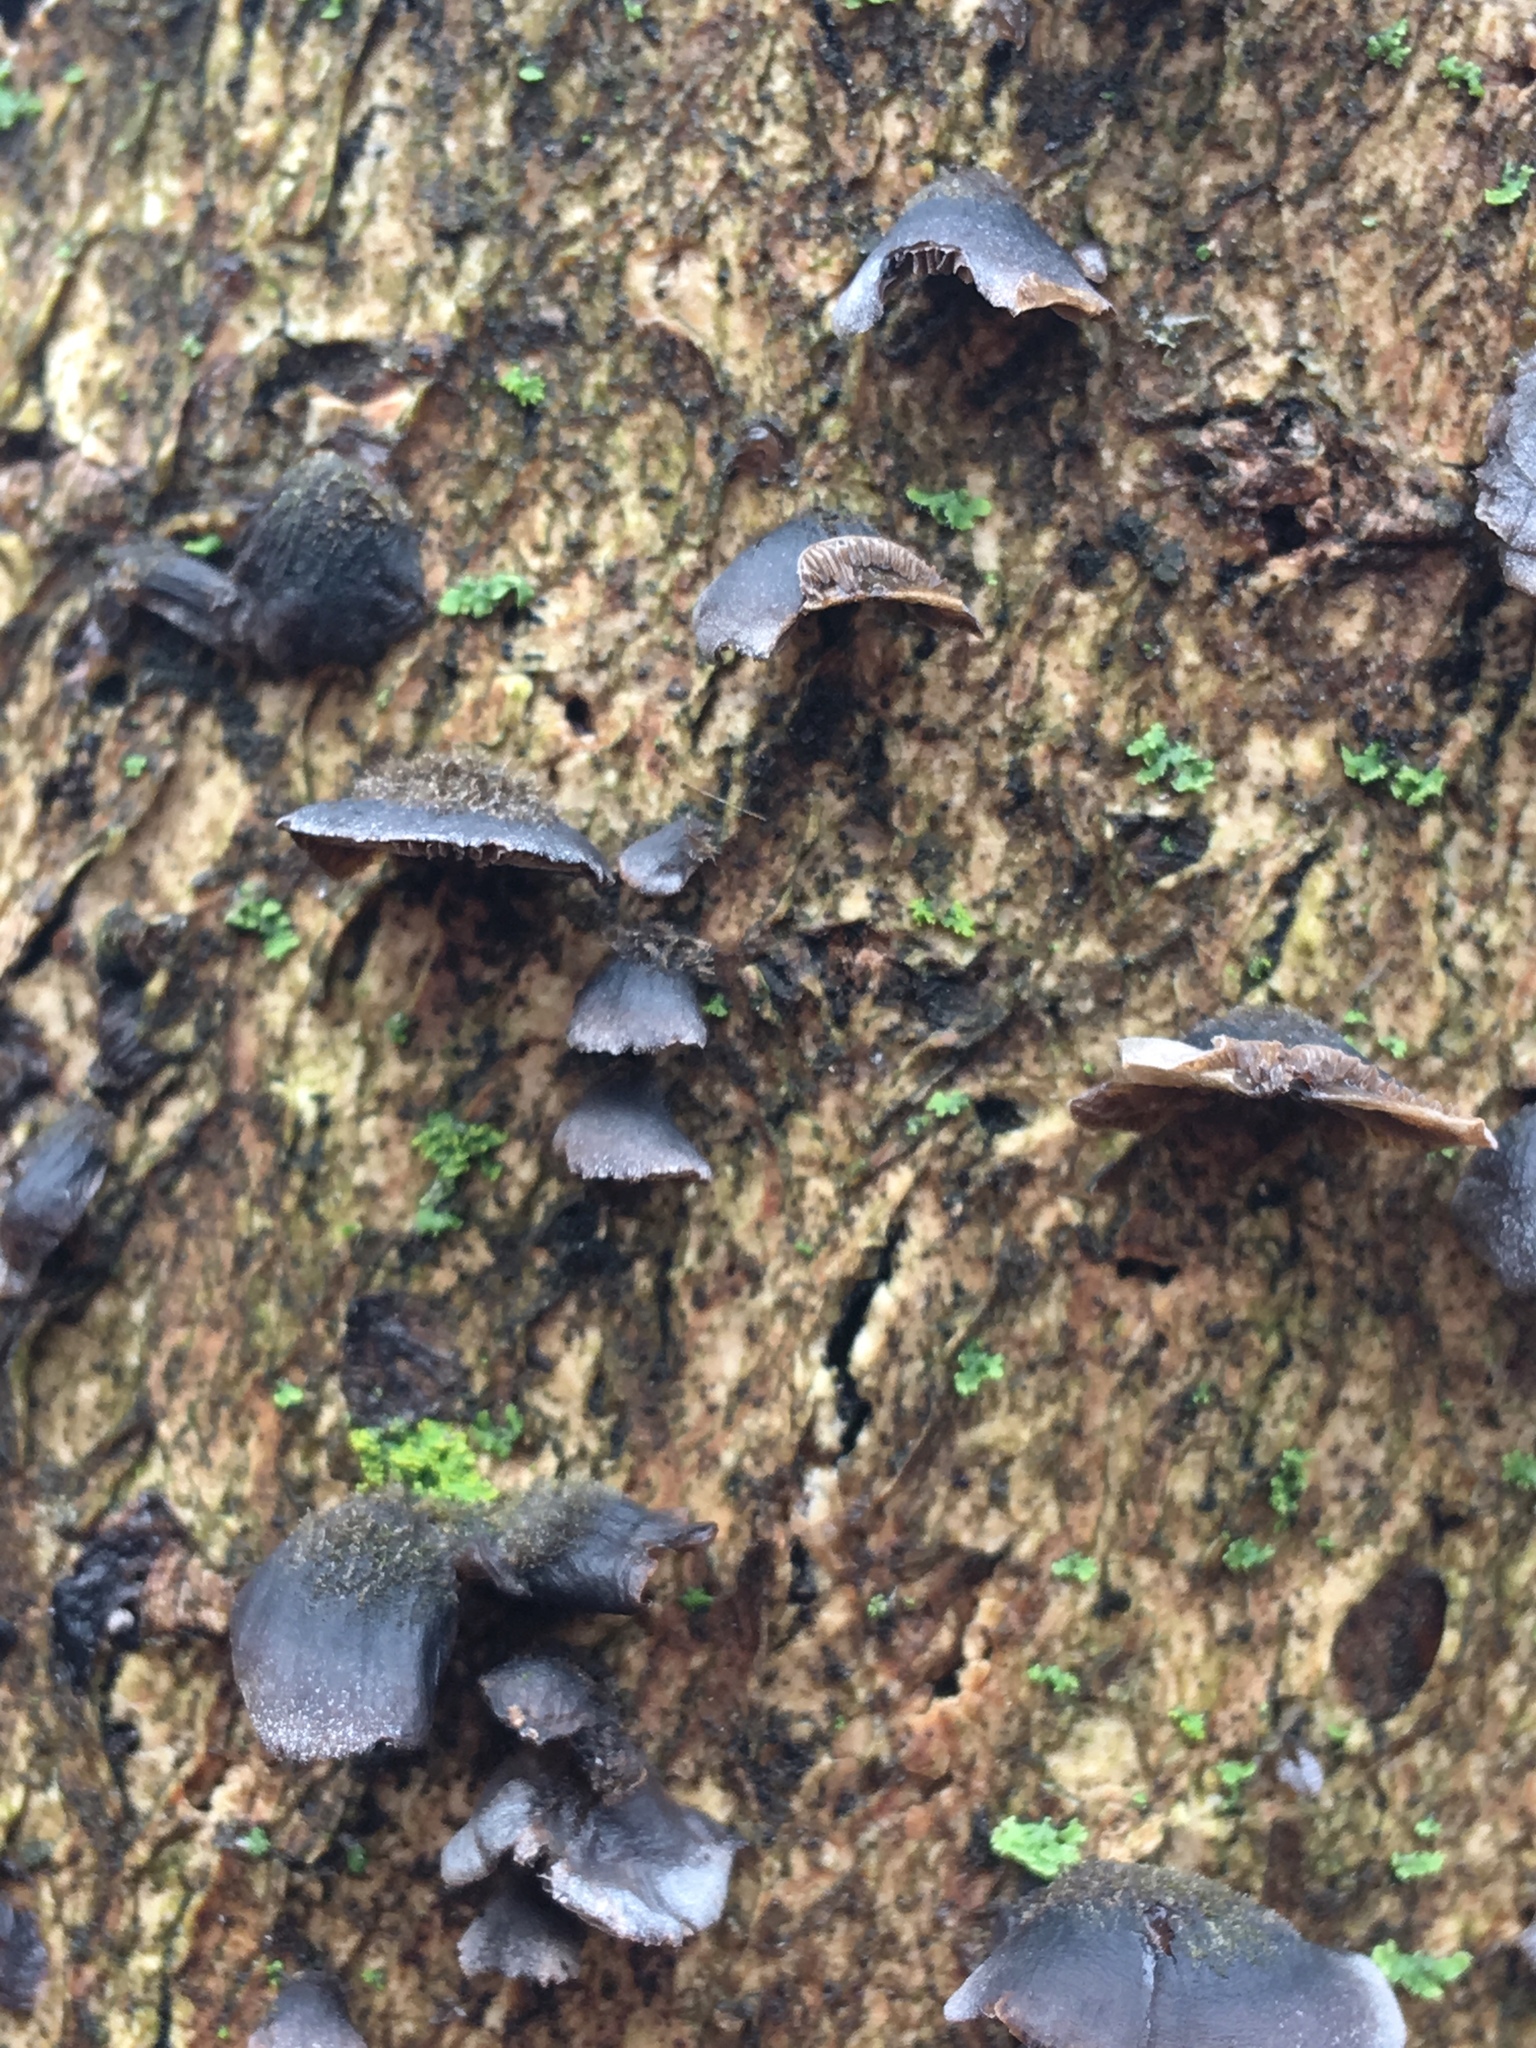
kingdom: Fungi
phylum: Basidiomycota
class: Agaricomycetes
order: Agaricales
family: Pleurotaceae
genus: Resupinatus
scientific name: Resupinatus applicatus
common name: Smoked oysterling
